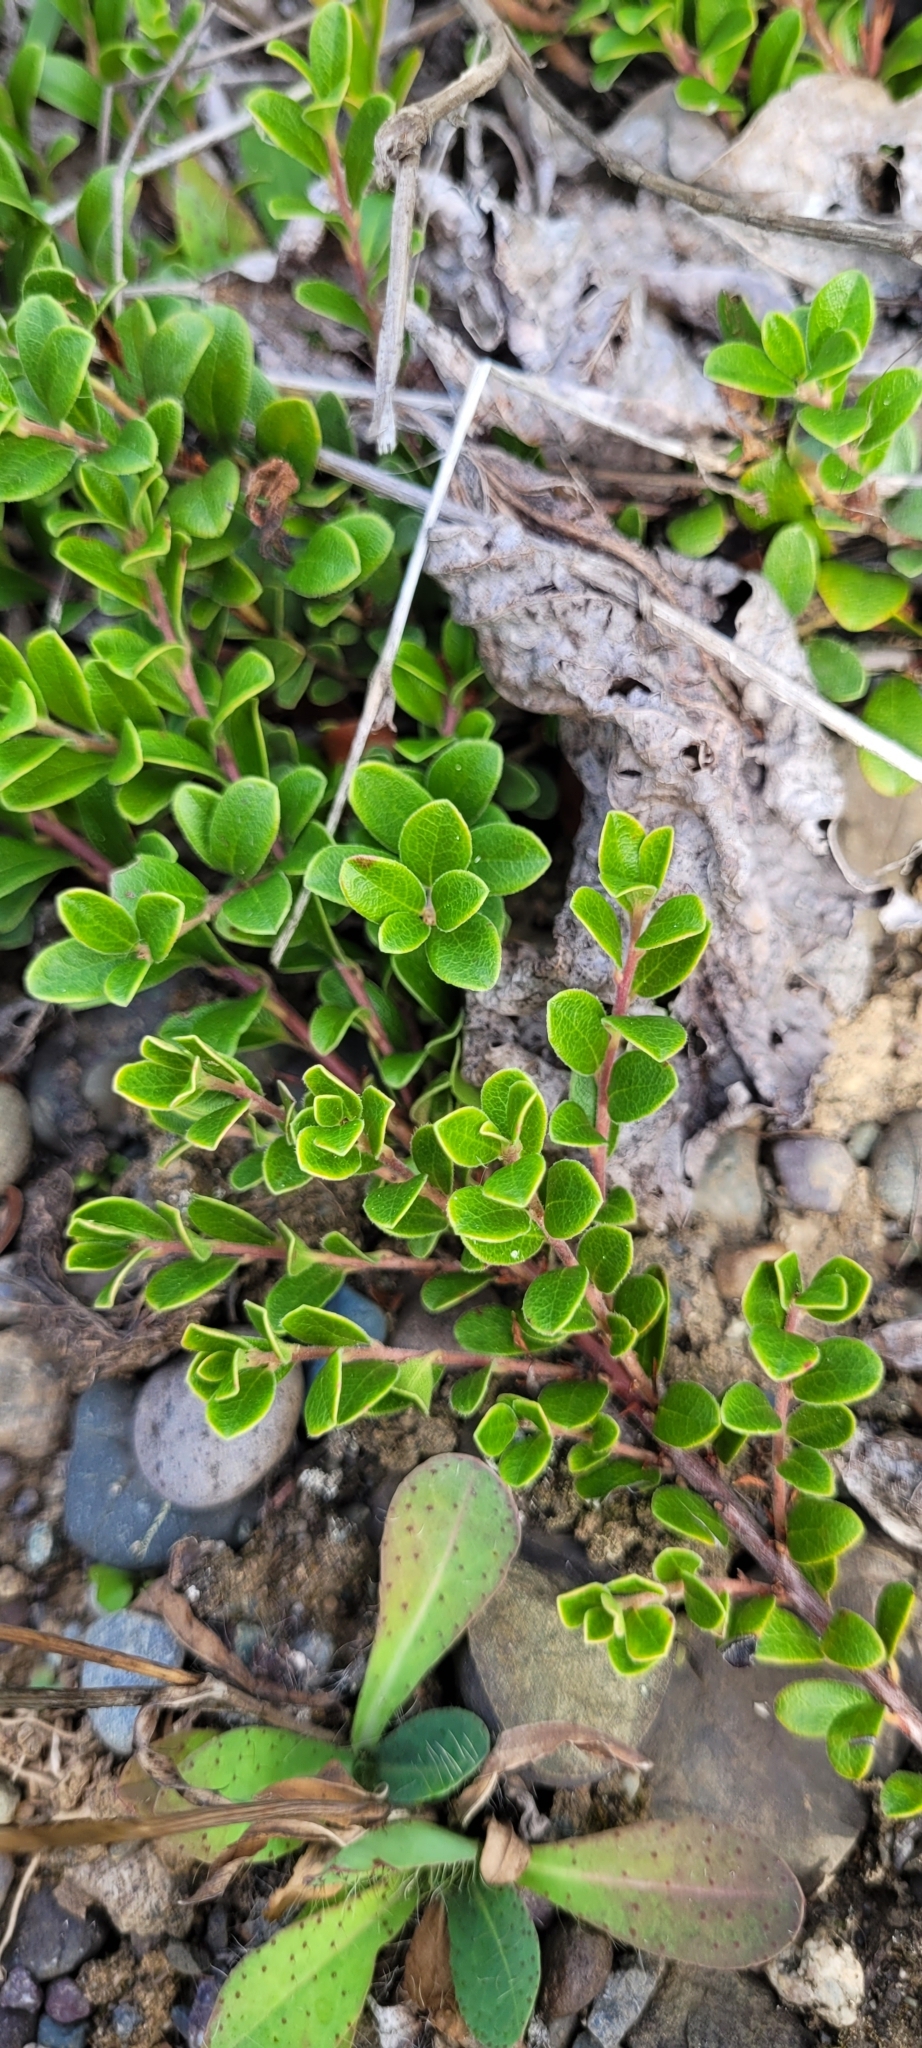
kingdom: Plantae
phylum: Tracheophyta
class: Magnoliopsida
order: Ericales
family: Ericaceae
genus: Arctostaphylos
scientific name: Arctostaphylos uva-ursi
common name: Bearberry
